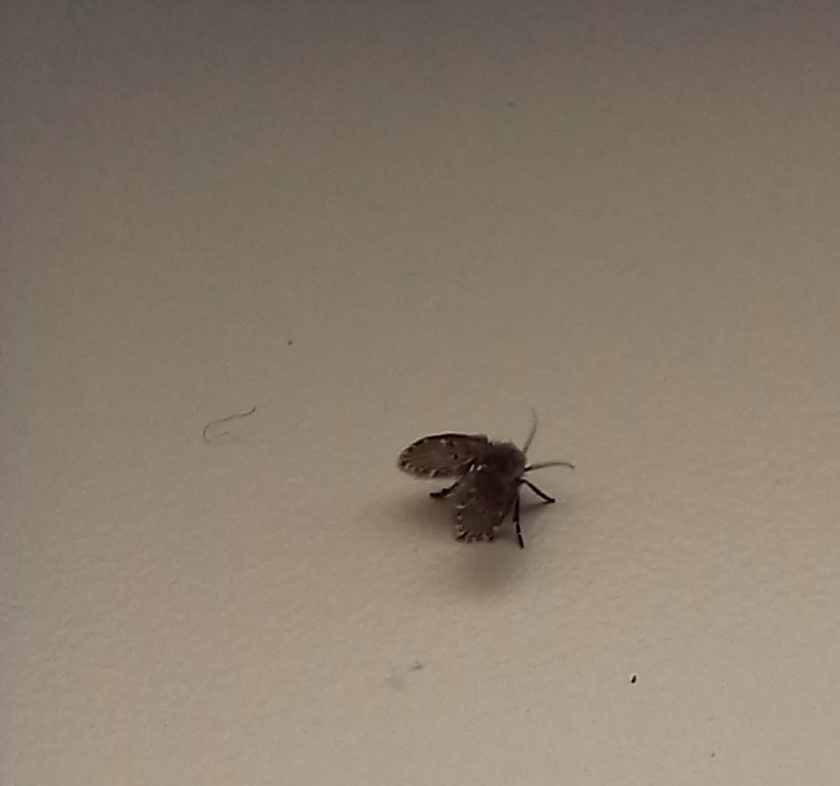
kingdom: Animalia
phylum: Arthropoda
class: Insecta
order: Diptera
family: Psychodidae
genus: Clogmia
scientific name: Clogmia albipunctatus
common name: White-spotted moth fly
